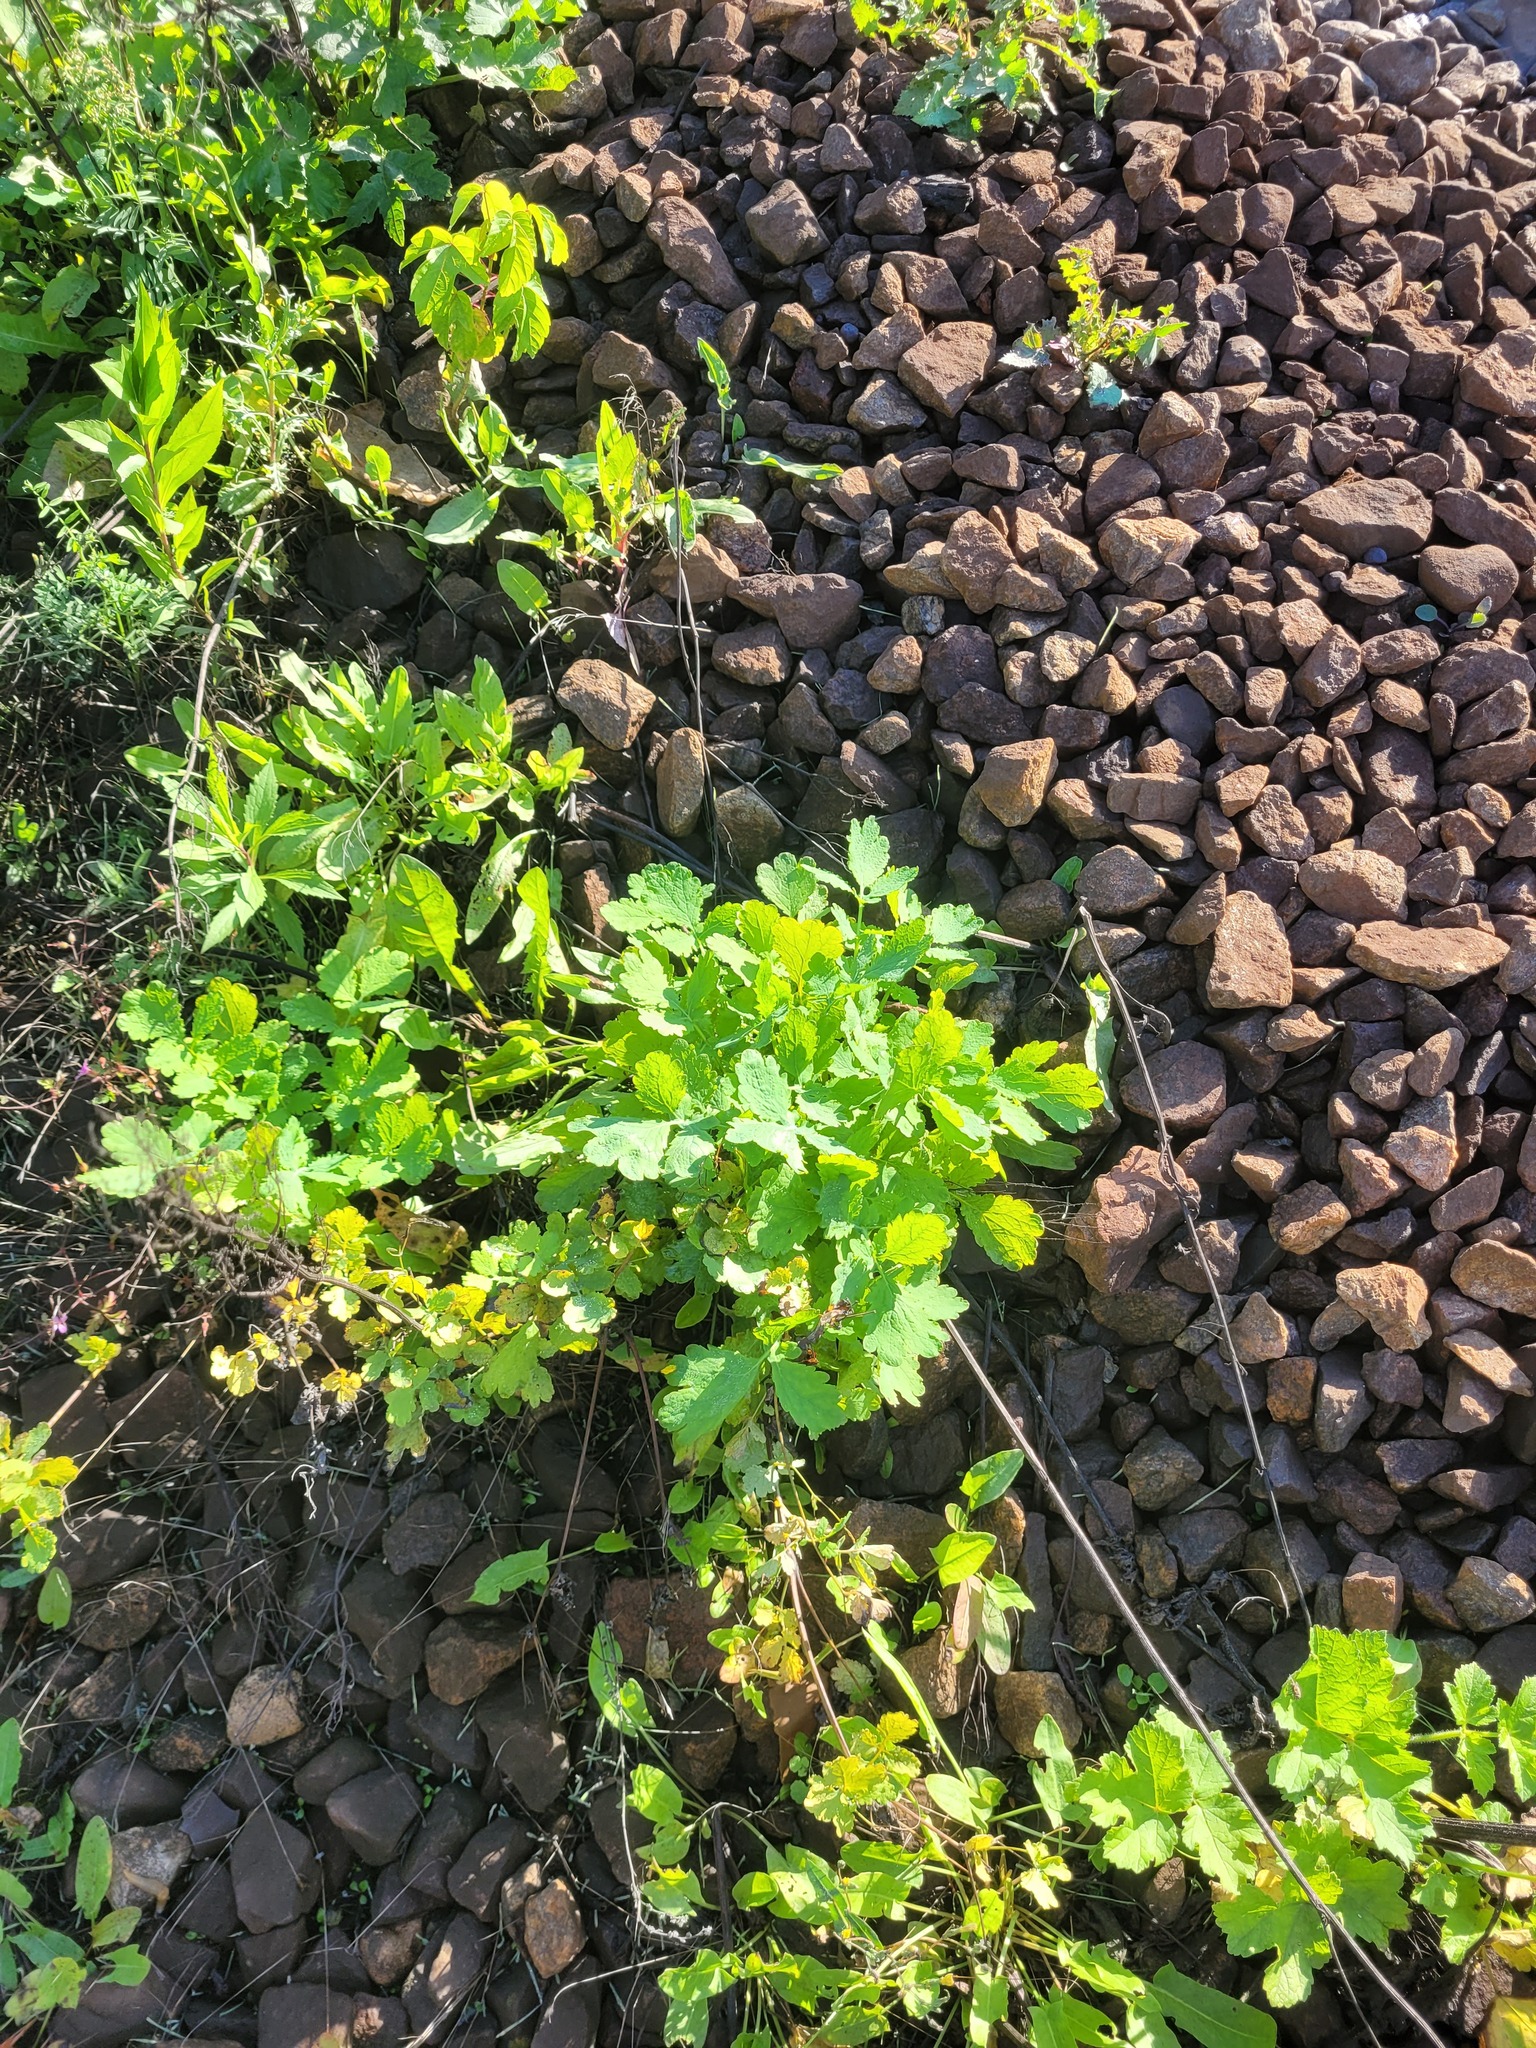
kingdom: Plantae
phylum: Tracheophyta
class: Magnoliopsida
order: Ranunculales
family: Papaveraceae
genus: Chelidonium
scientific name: Chelidonium majus
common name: Greater celandine
